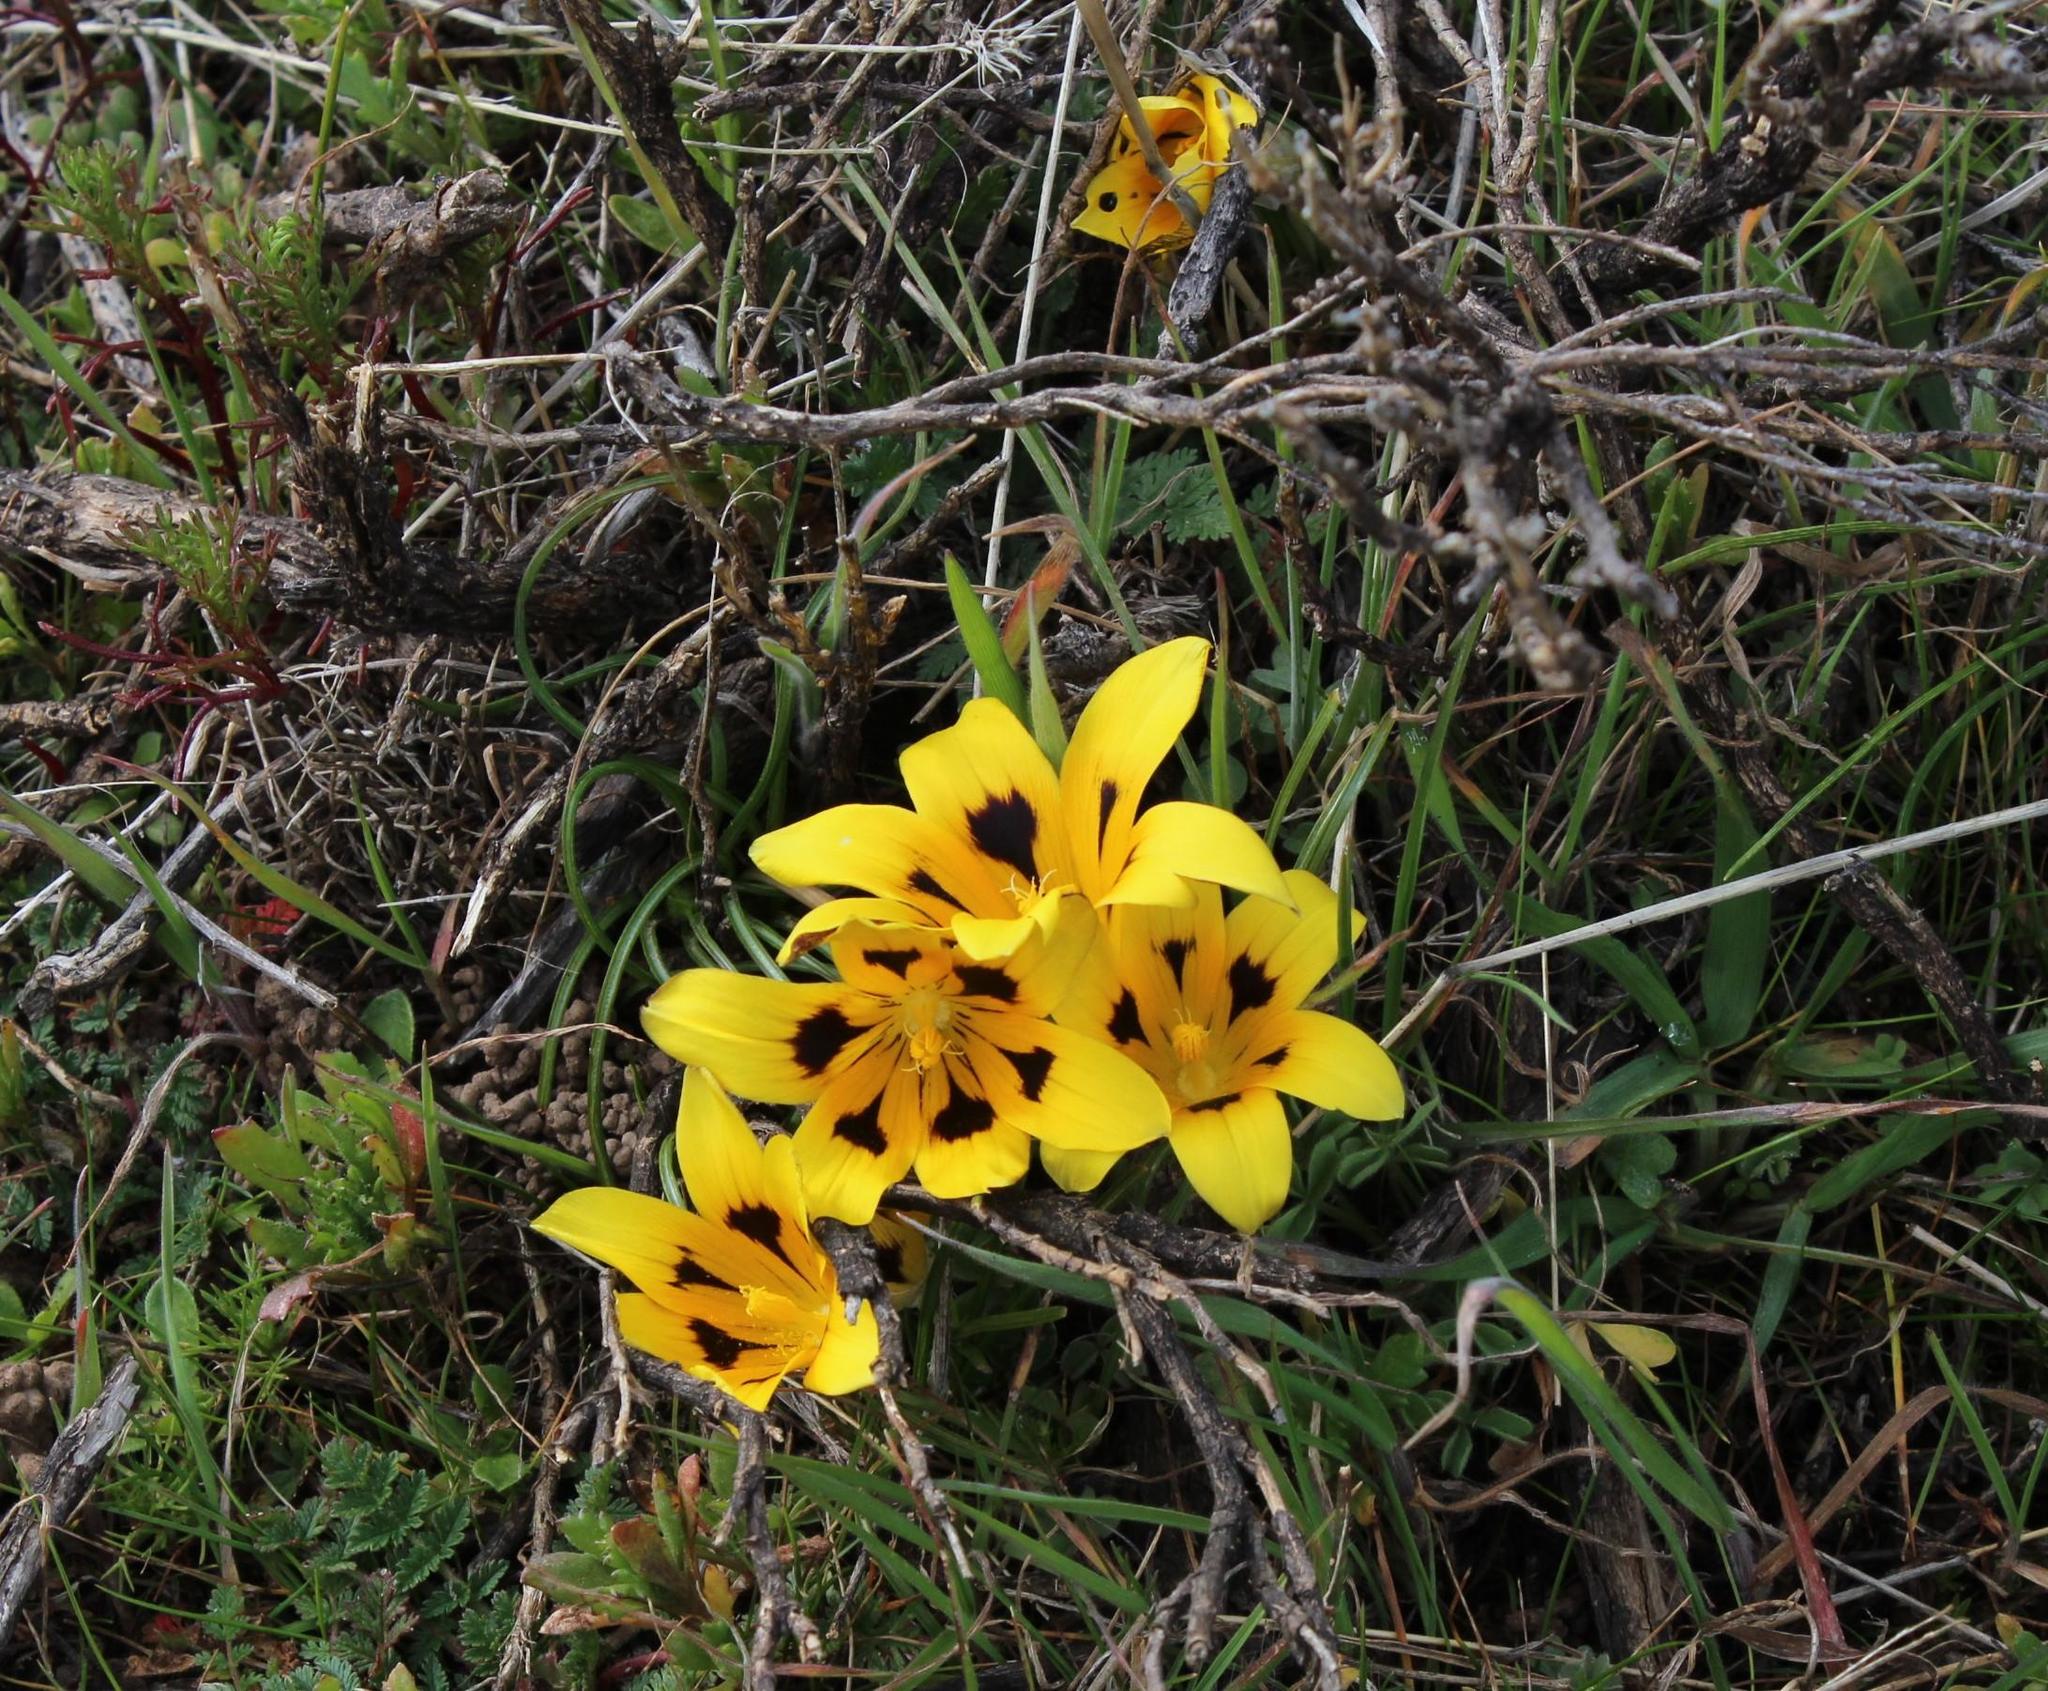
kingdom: Plantae
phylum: Tracheophyta
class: Liliopsida
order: Asparagales
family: Iridaceae
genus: Romulea
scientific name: Romulea tortuosa
